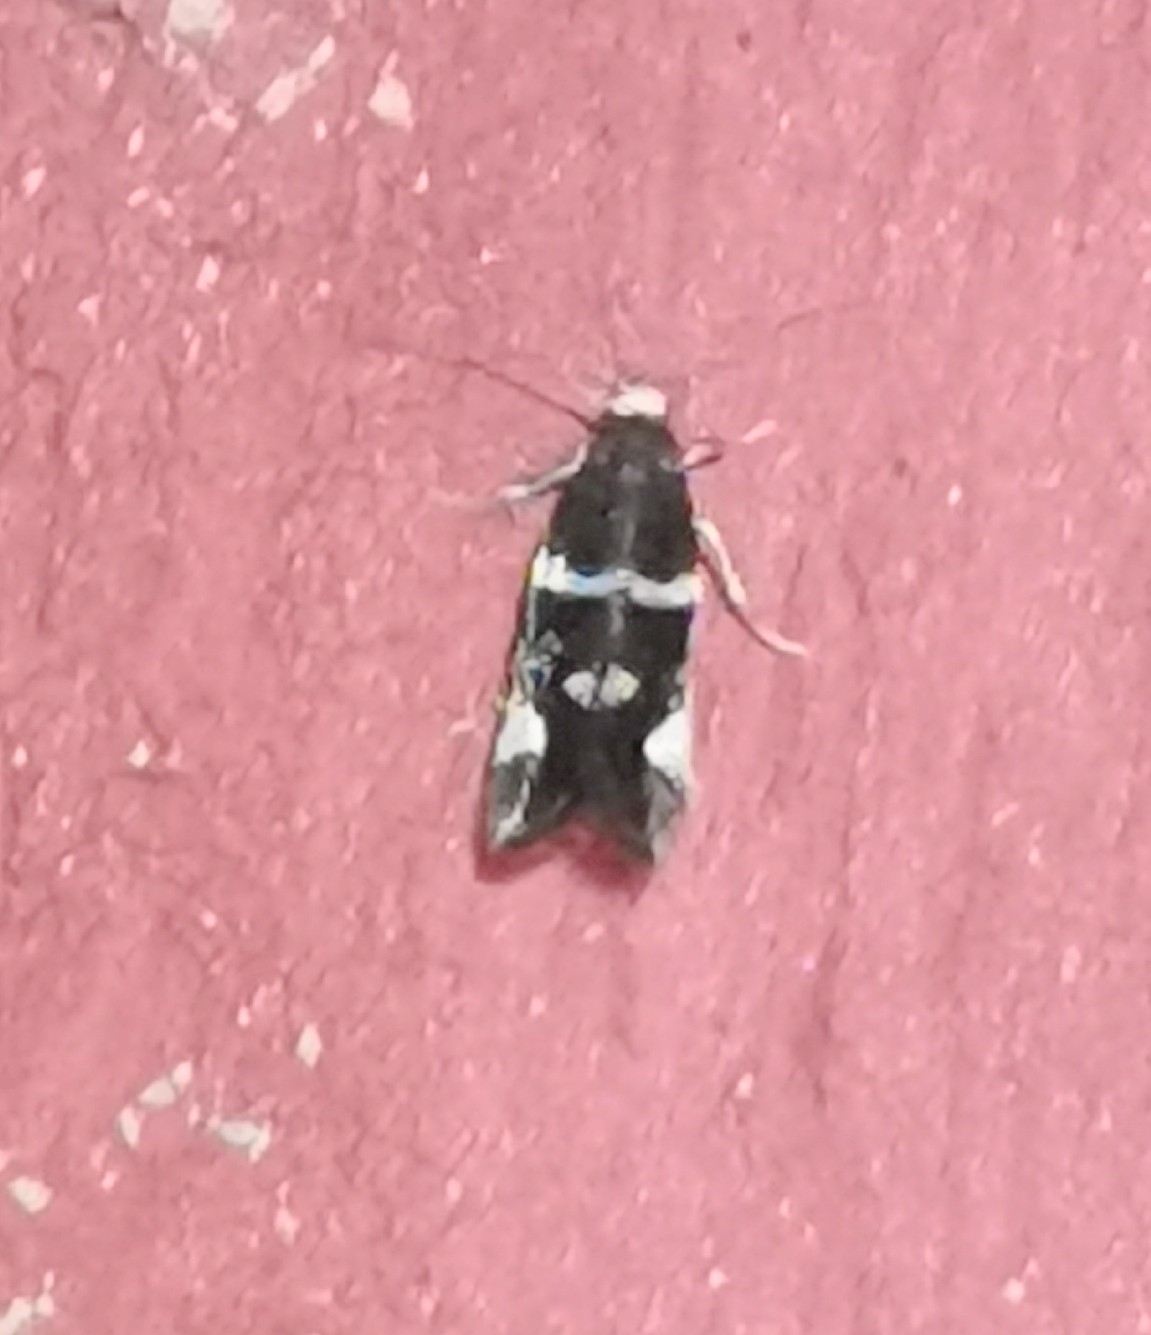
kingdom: Animalia
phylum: Arthropoda
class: Insecta
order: Lepidoptera
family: Incurvariidae
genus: Lampronia
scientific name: Lampronia praelatella
